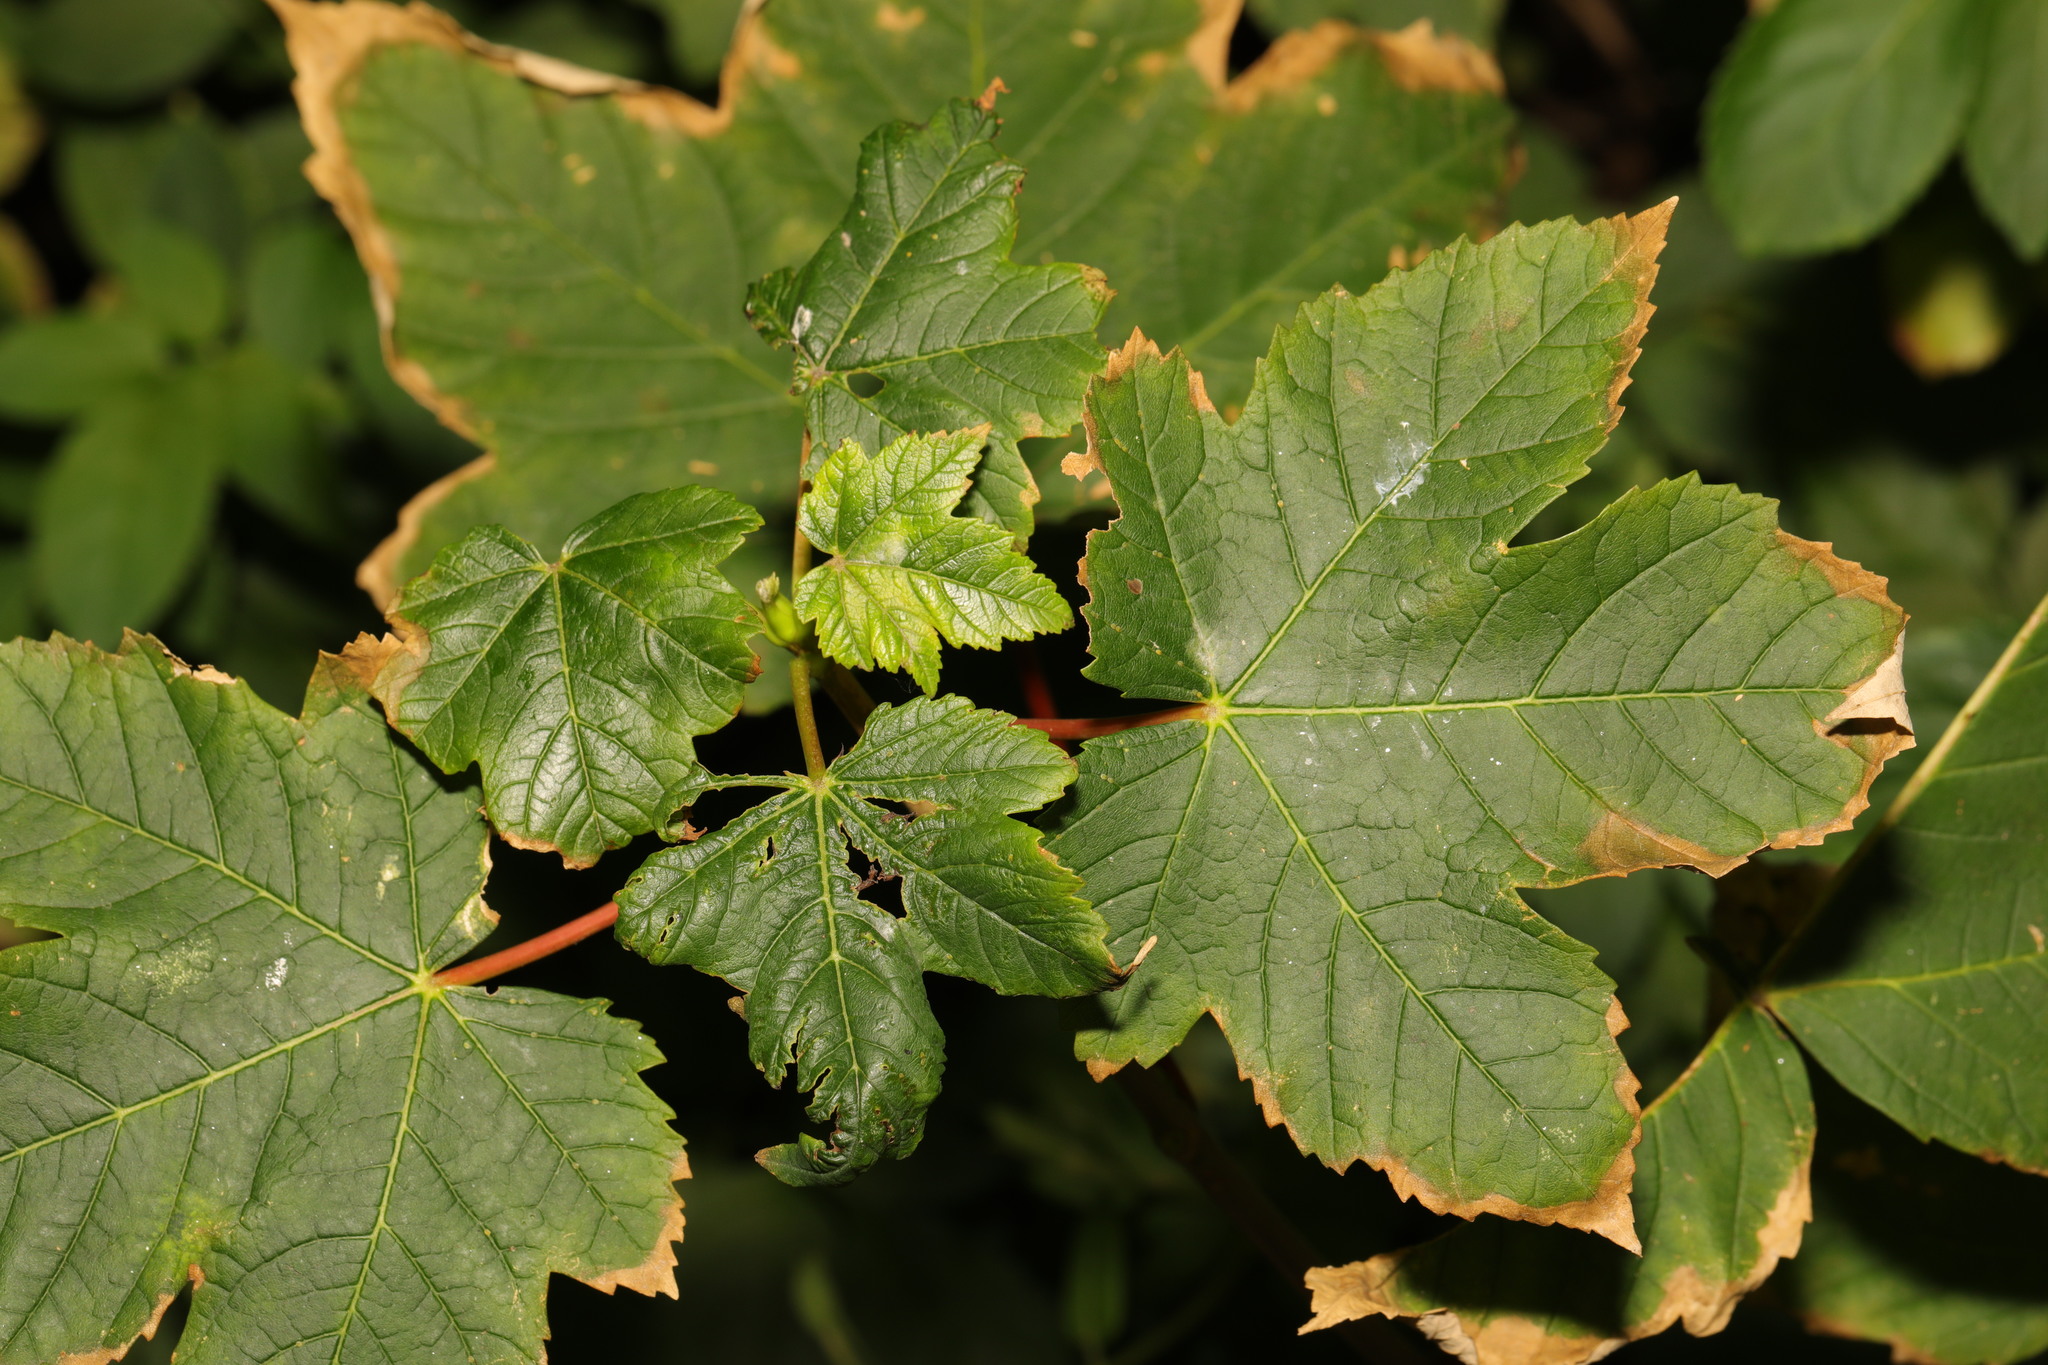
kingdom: Plantae
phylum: Tracheophyta
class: Magnoliopsida
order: Sapindales
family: Sapindaceae
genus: Acer
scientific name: Acer pseudoplatanus
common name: Sycamore
